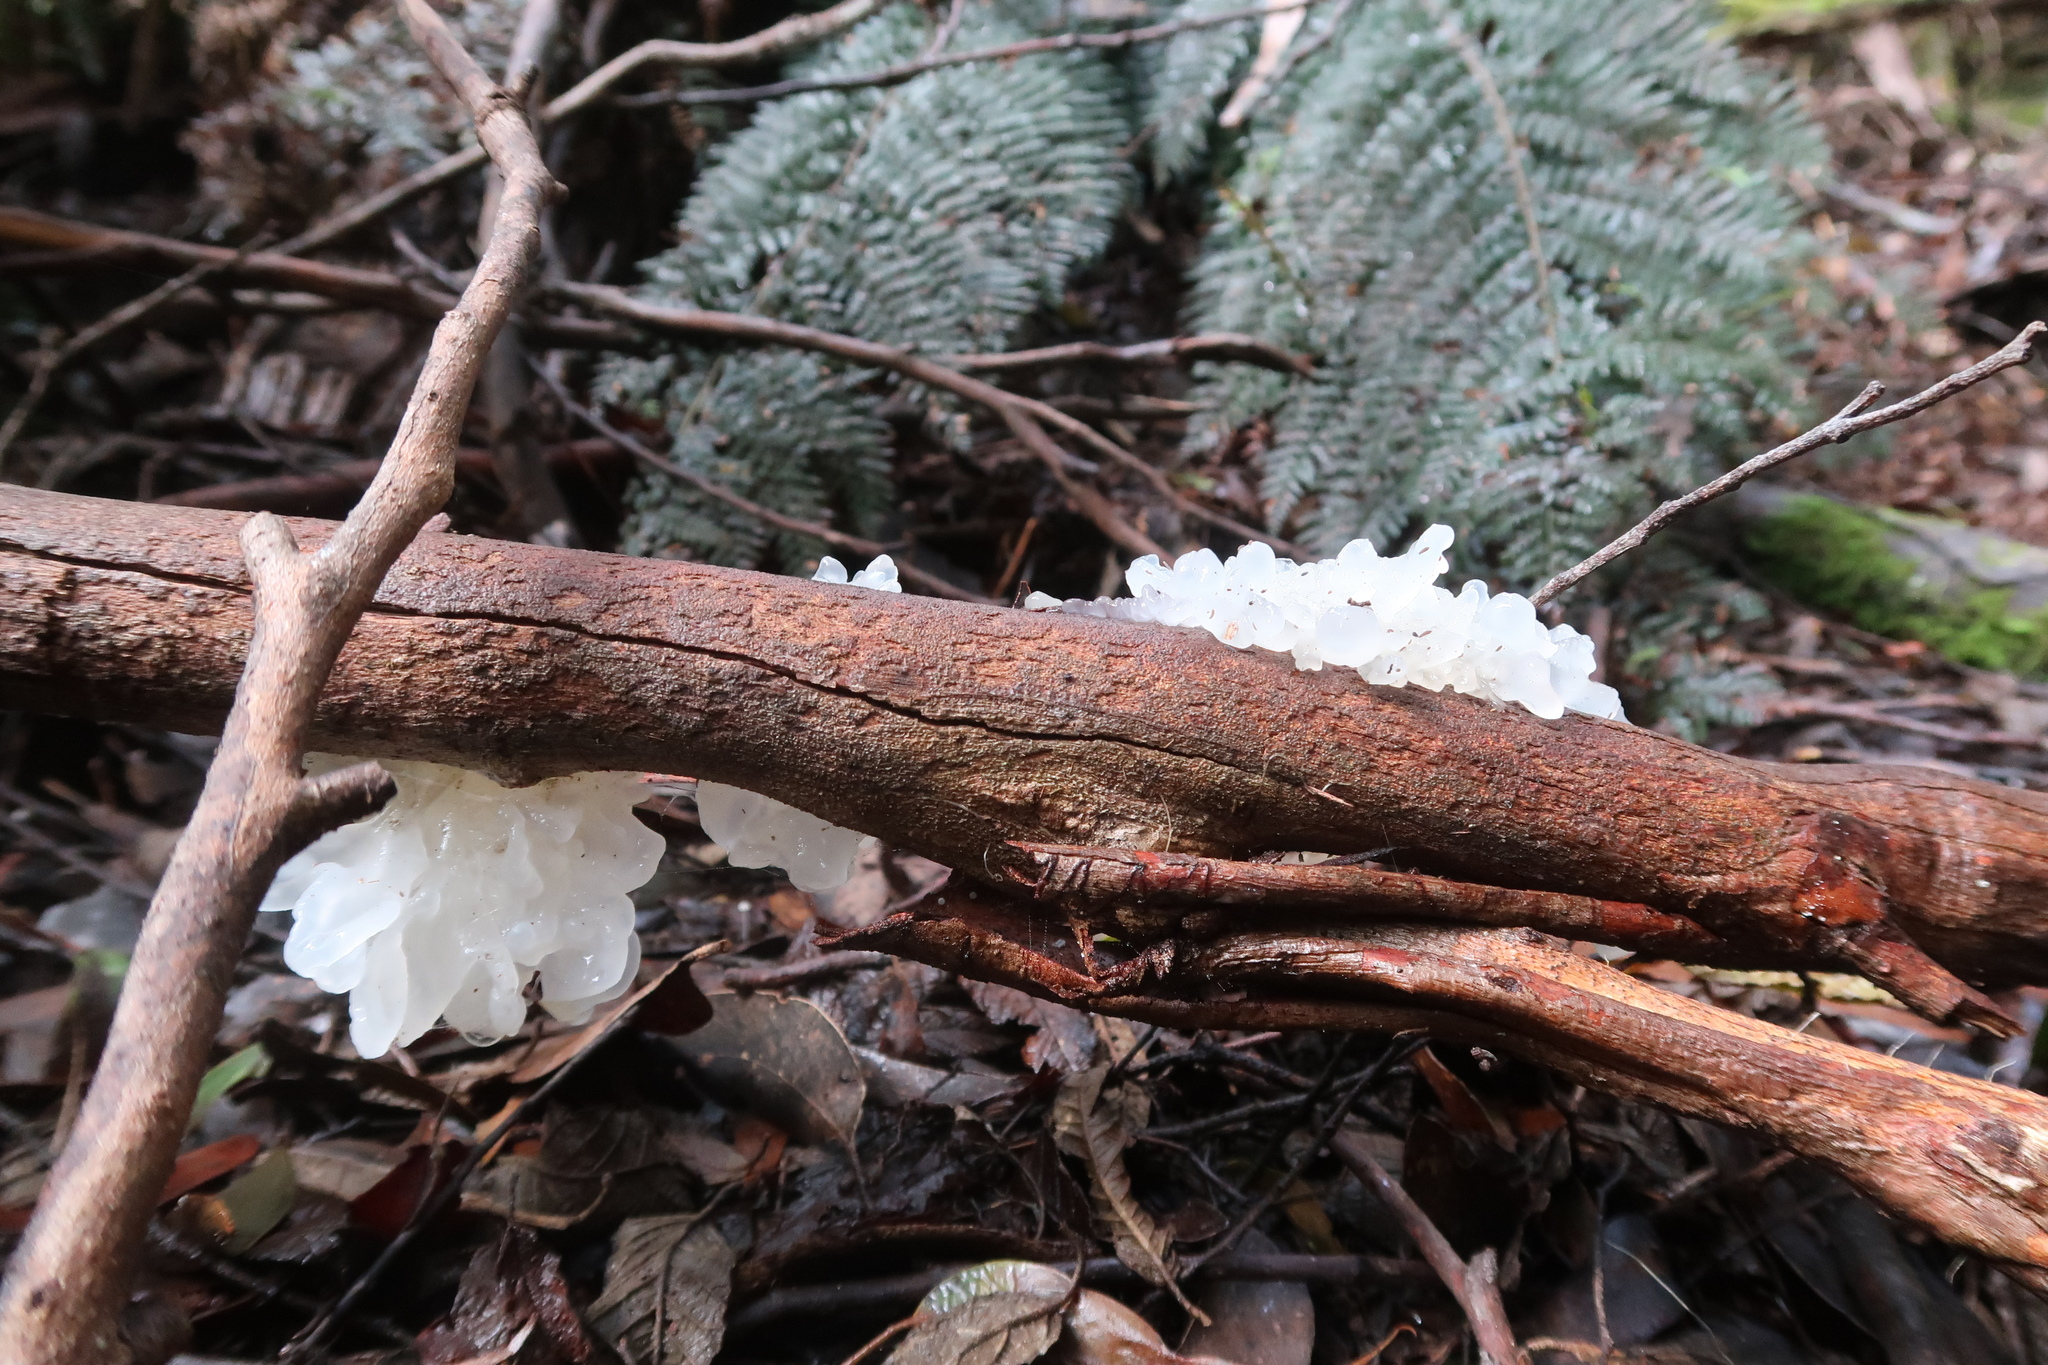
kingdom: Fungi
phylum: Basidiomycota
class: Tremellomycetes
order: Tremellales
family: Tremellaceae
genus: Tremella
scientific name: Tremella fuciformis
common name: Snow fungus
